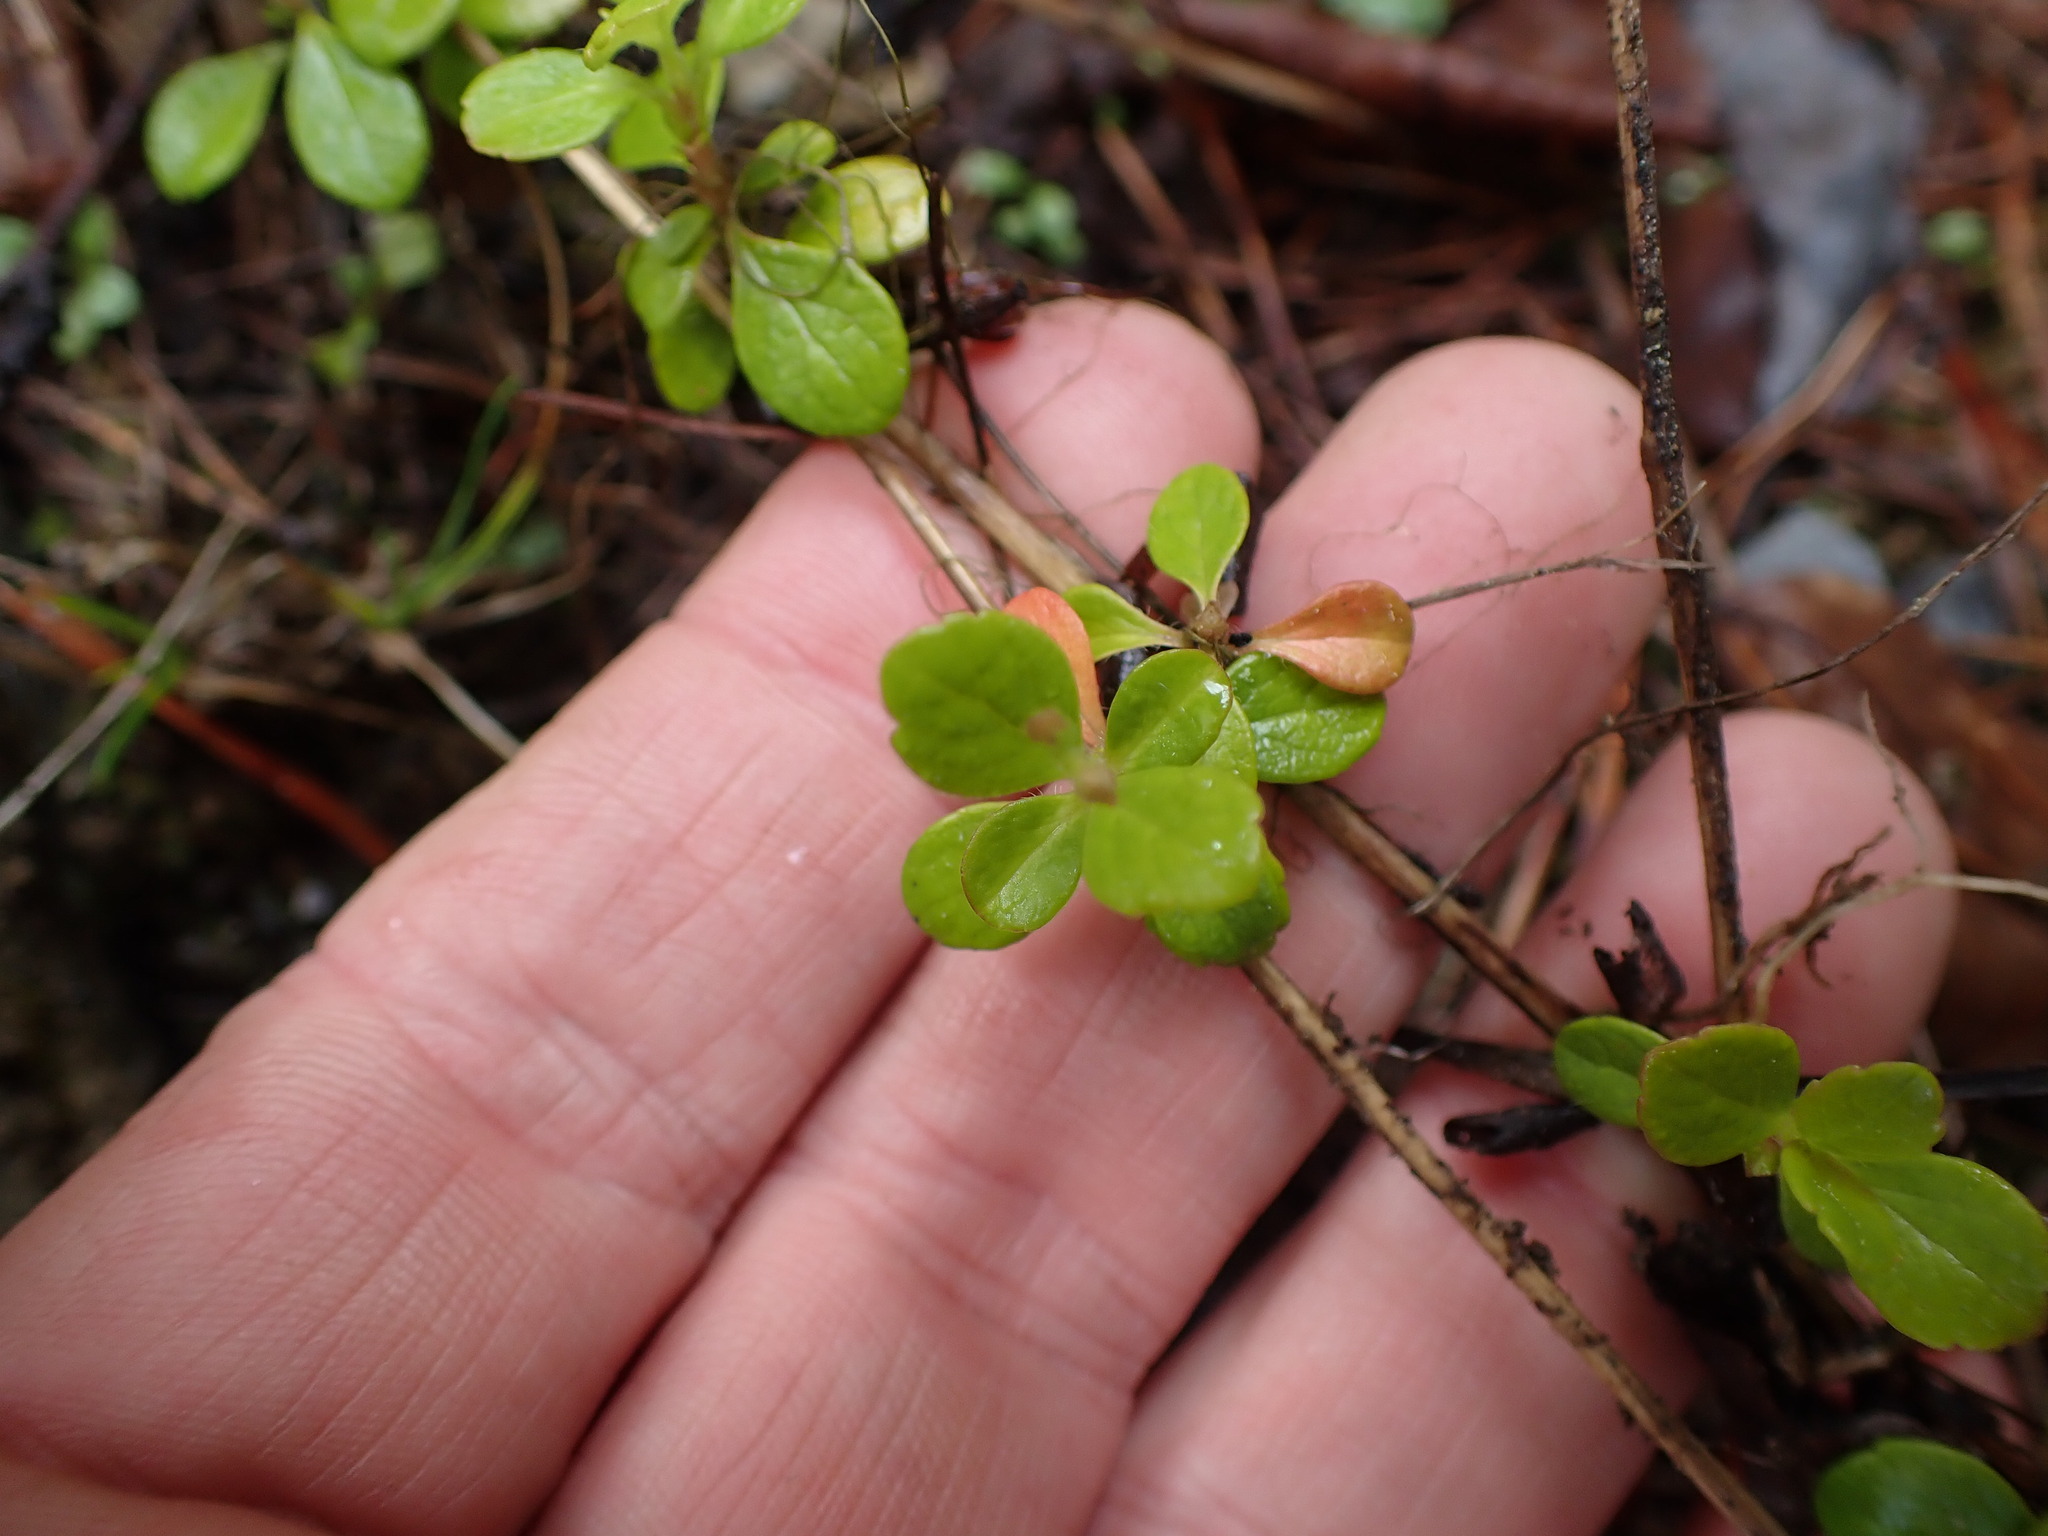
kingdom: Plantae
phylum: Tracheophyta
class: Magnoliopsida
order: Dipsacales
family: Caprifoliaceae
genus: Linnaea
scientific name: Linnaea borealis
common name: Twinflower
